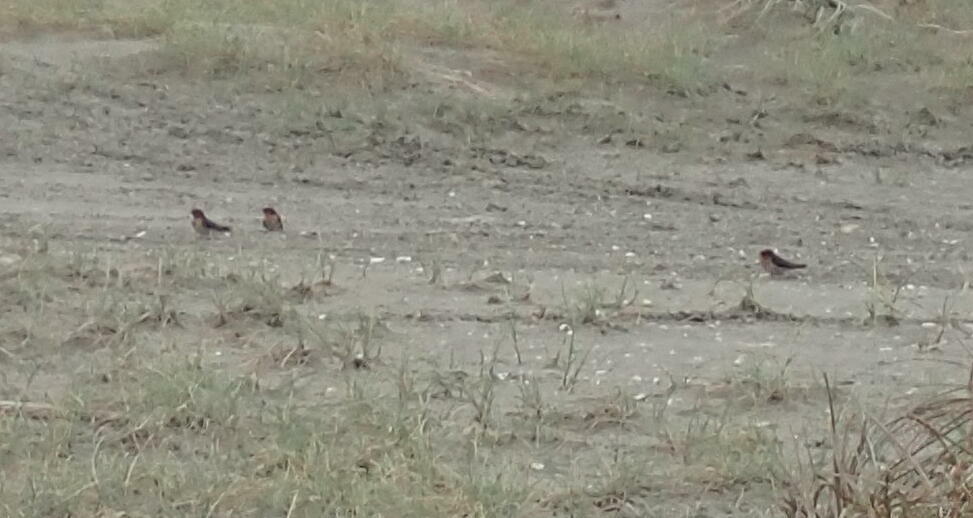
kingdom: Animalia
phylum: Chordata
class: Aves
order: Passeriformes
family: Hirundinidae
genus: Hirundo
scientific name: Hirundo neoxena
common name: Welcome swallow
